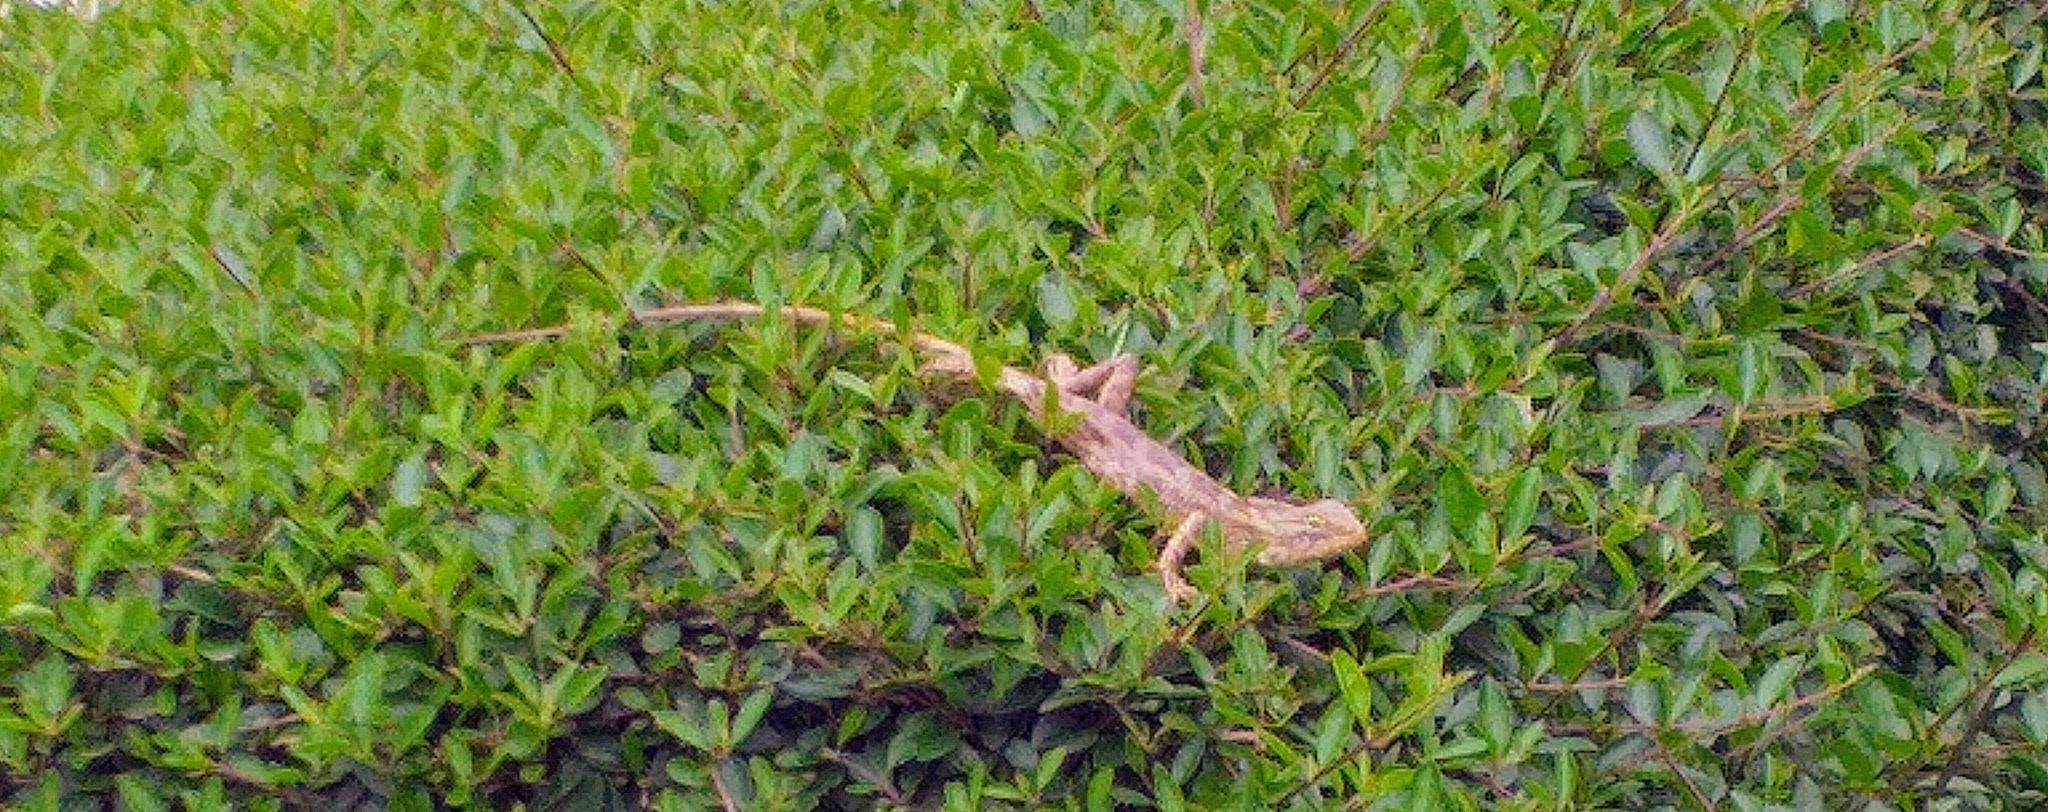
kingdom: Animalia
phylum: Chordata
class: Squamata
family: Agamidae
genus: Calotes
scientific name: Calotes versicolor
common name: Oriental garden lizard
